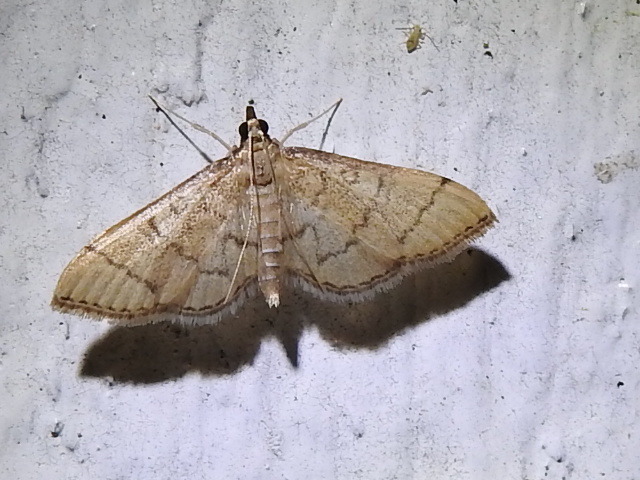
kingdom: Animalia
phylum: Arthropoda
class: Insecta
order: Lepidoptera
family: Crambidae
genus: Lamprosema
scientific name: Lamprosema Blepharomastix ranalis
